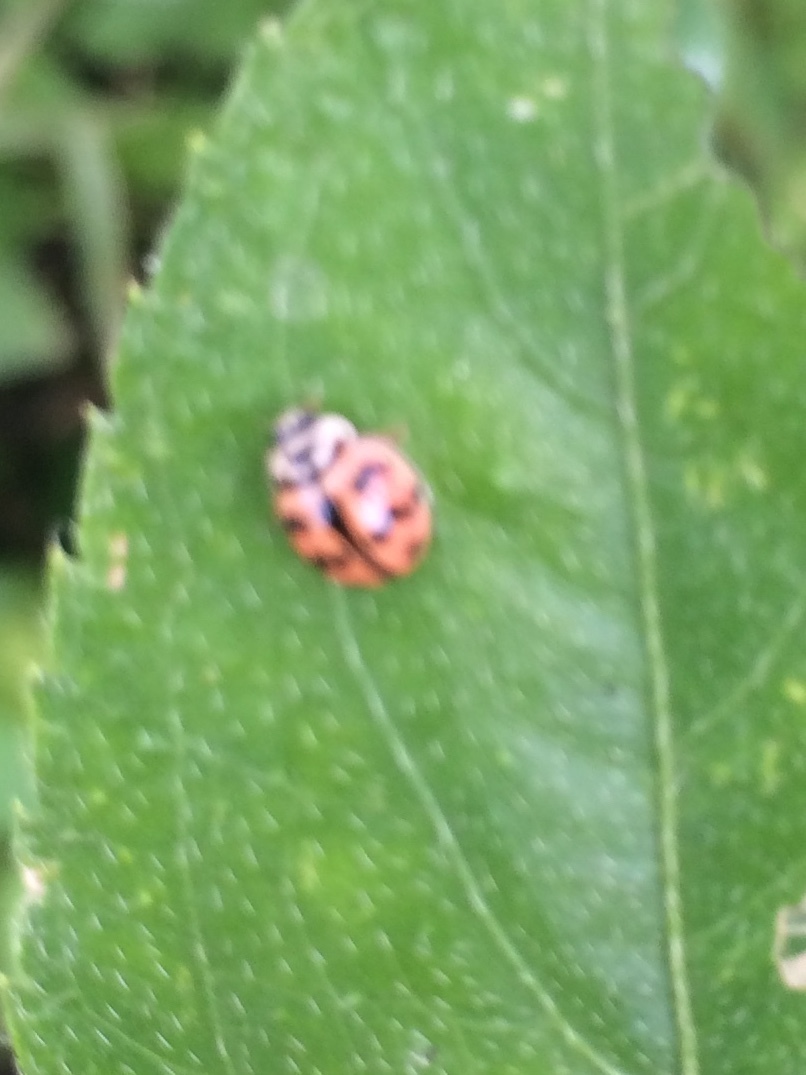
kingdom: Animalia
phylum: Arthropoda
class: Insecta
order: Coleoptera
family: Coccinellidae
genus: Cheilomenes
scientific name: Cheilomenes sexmaculata
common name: Ladybird beetle
